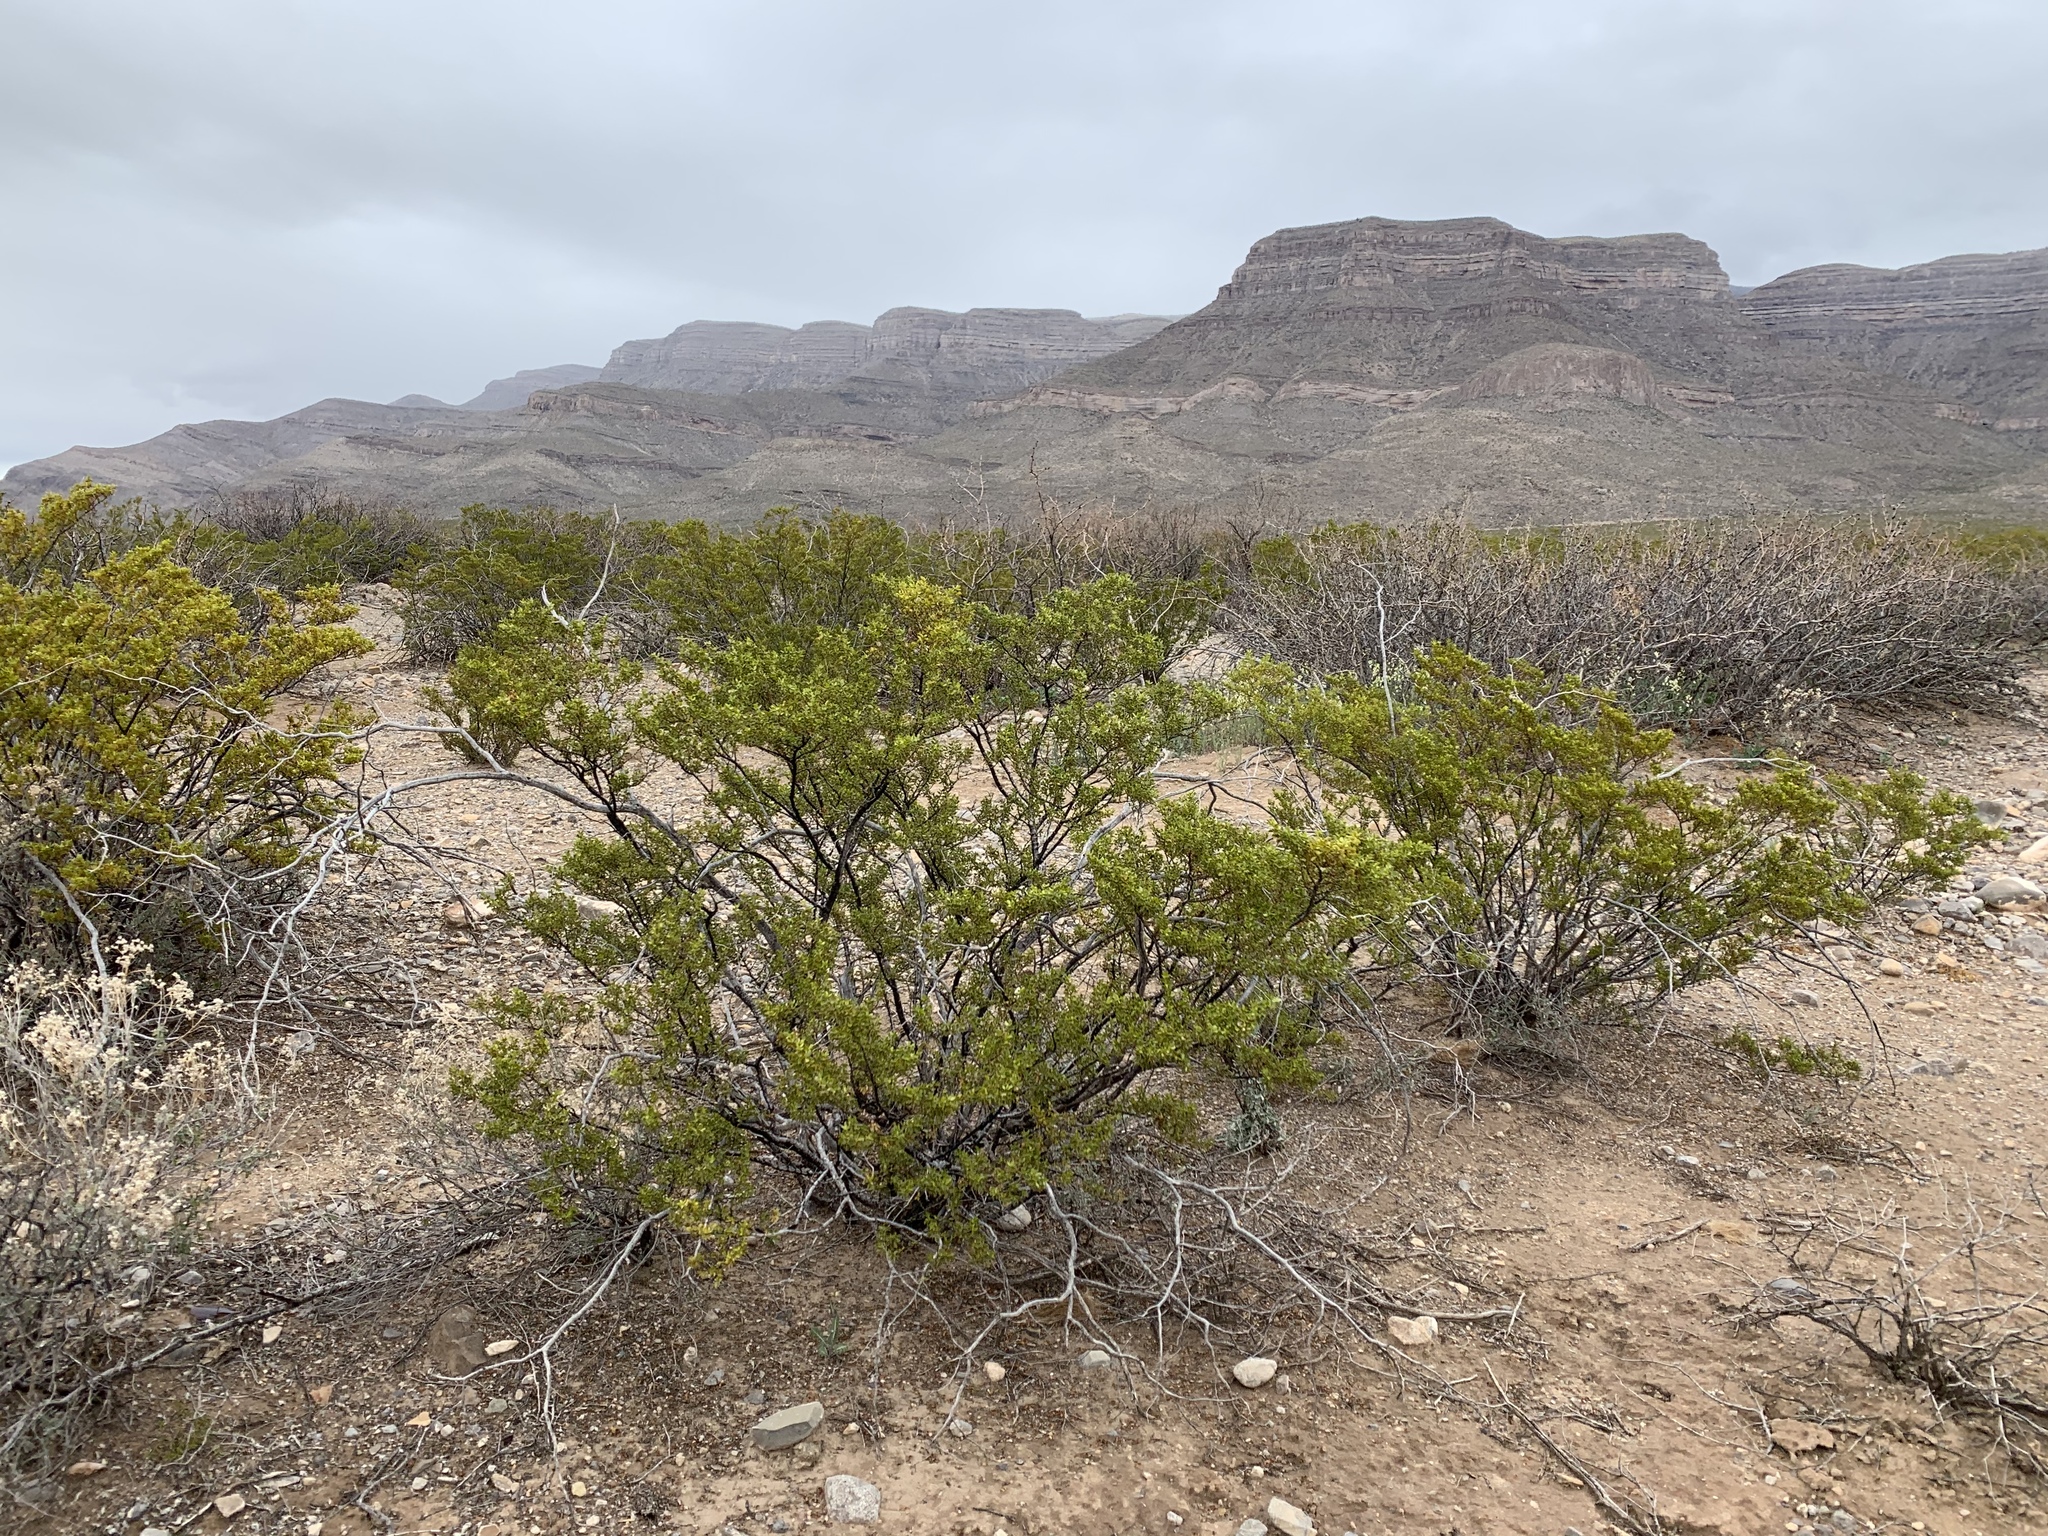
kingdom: Plantae
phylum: Tracheophyta
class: Magnoliopsida
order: Zygophyllales
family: Zygophyllaceae
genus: Larrea
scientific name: Larrea tridentata
